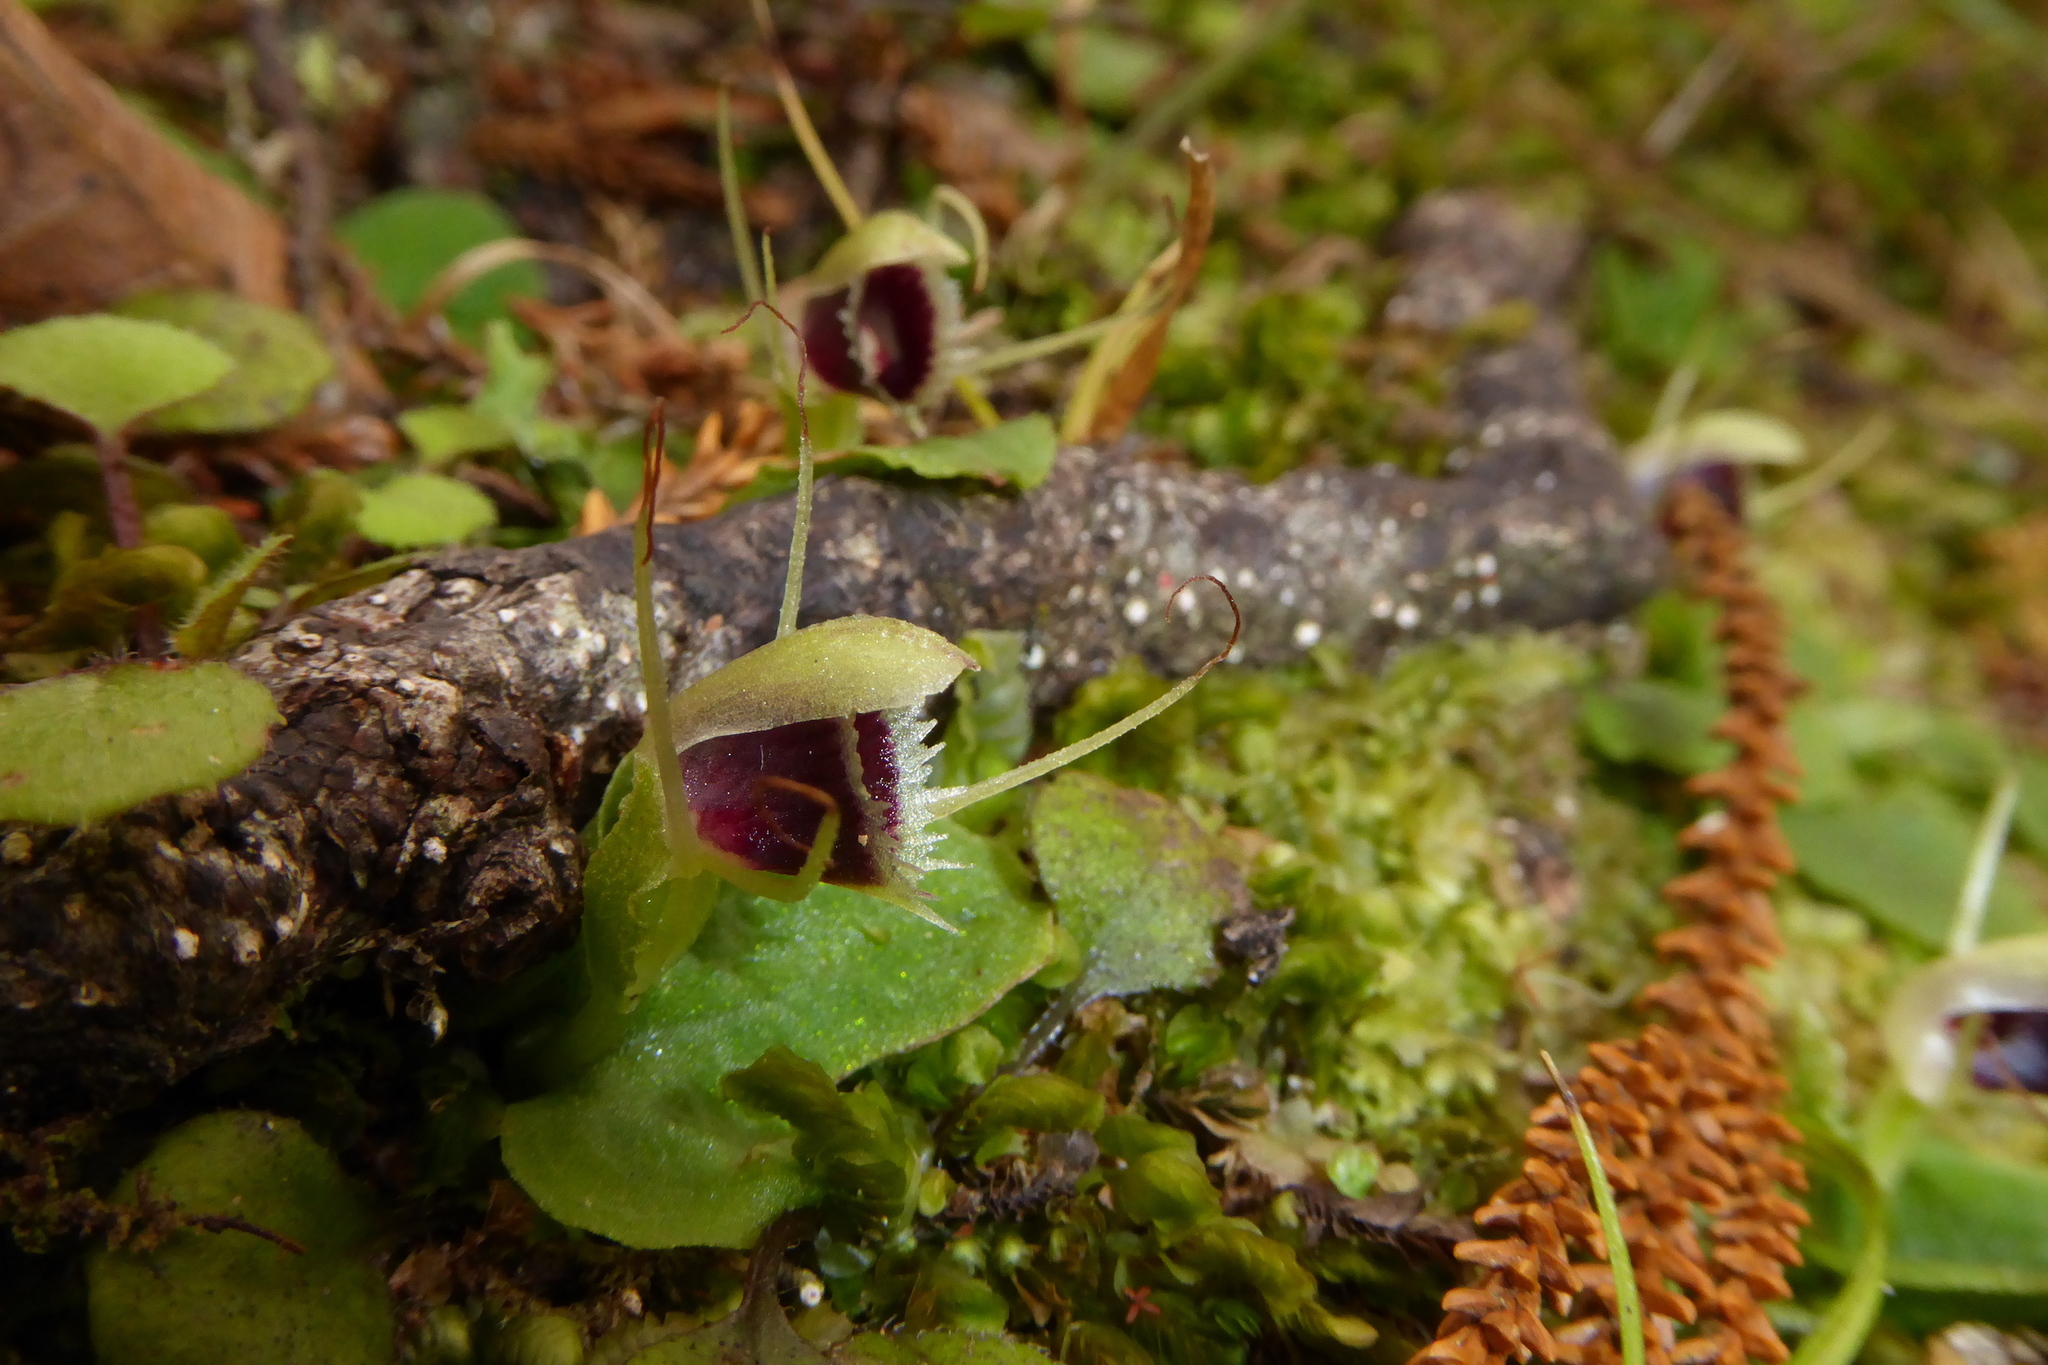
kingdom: Plantae
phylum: Tracheophyta
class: Liliopsida
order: Asparagales
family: Orchidaceae
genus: Corybas
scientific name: Corybas oblongus
